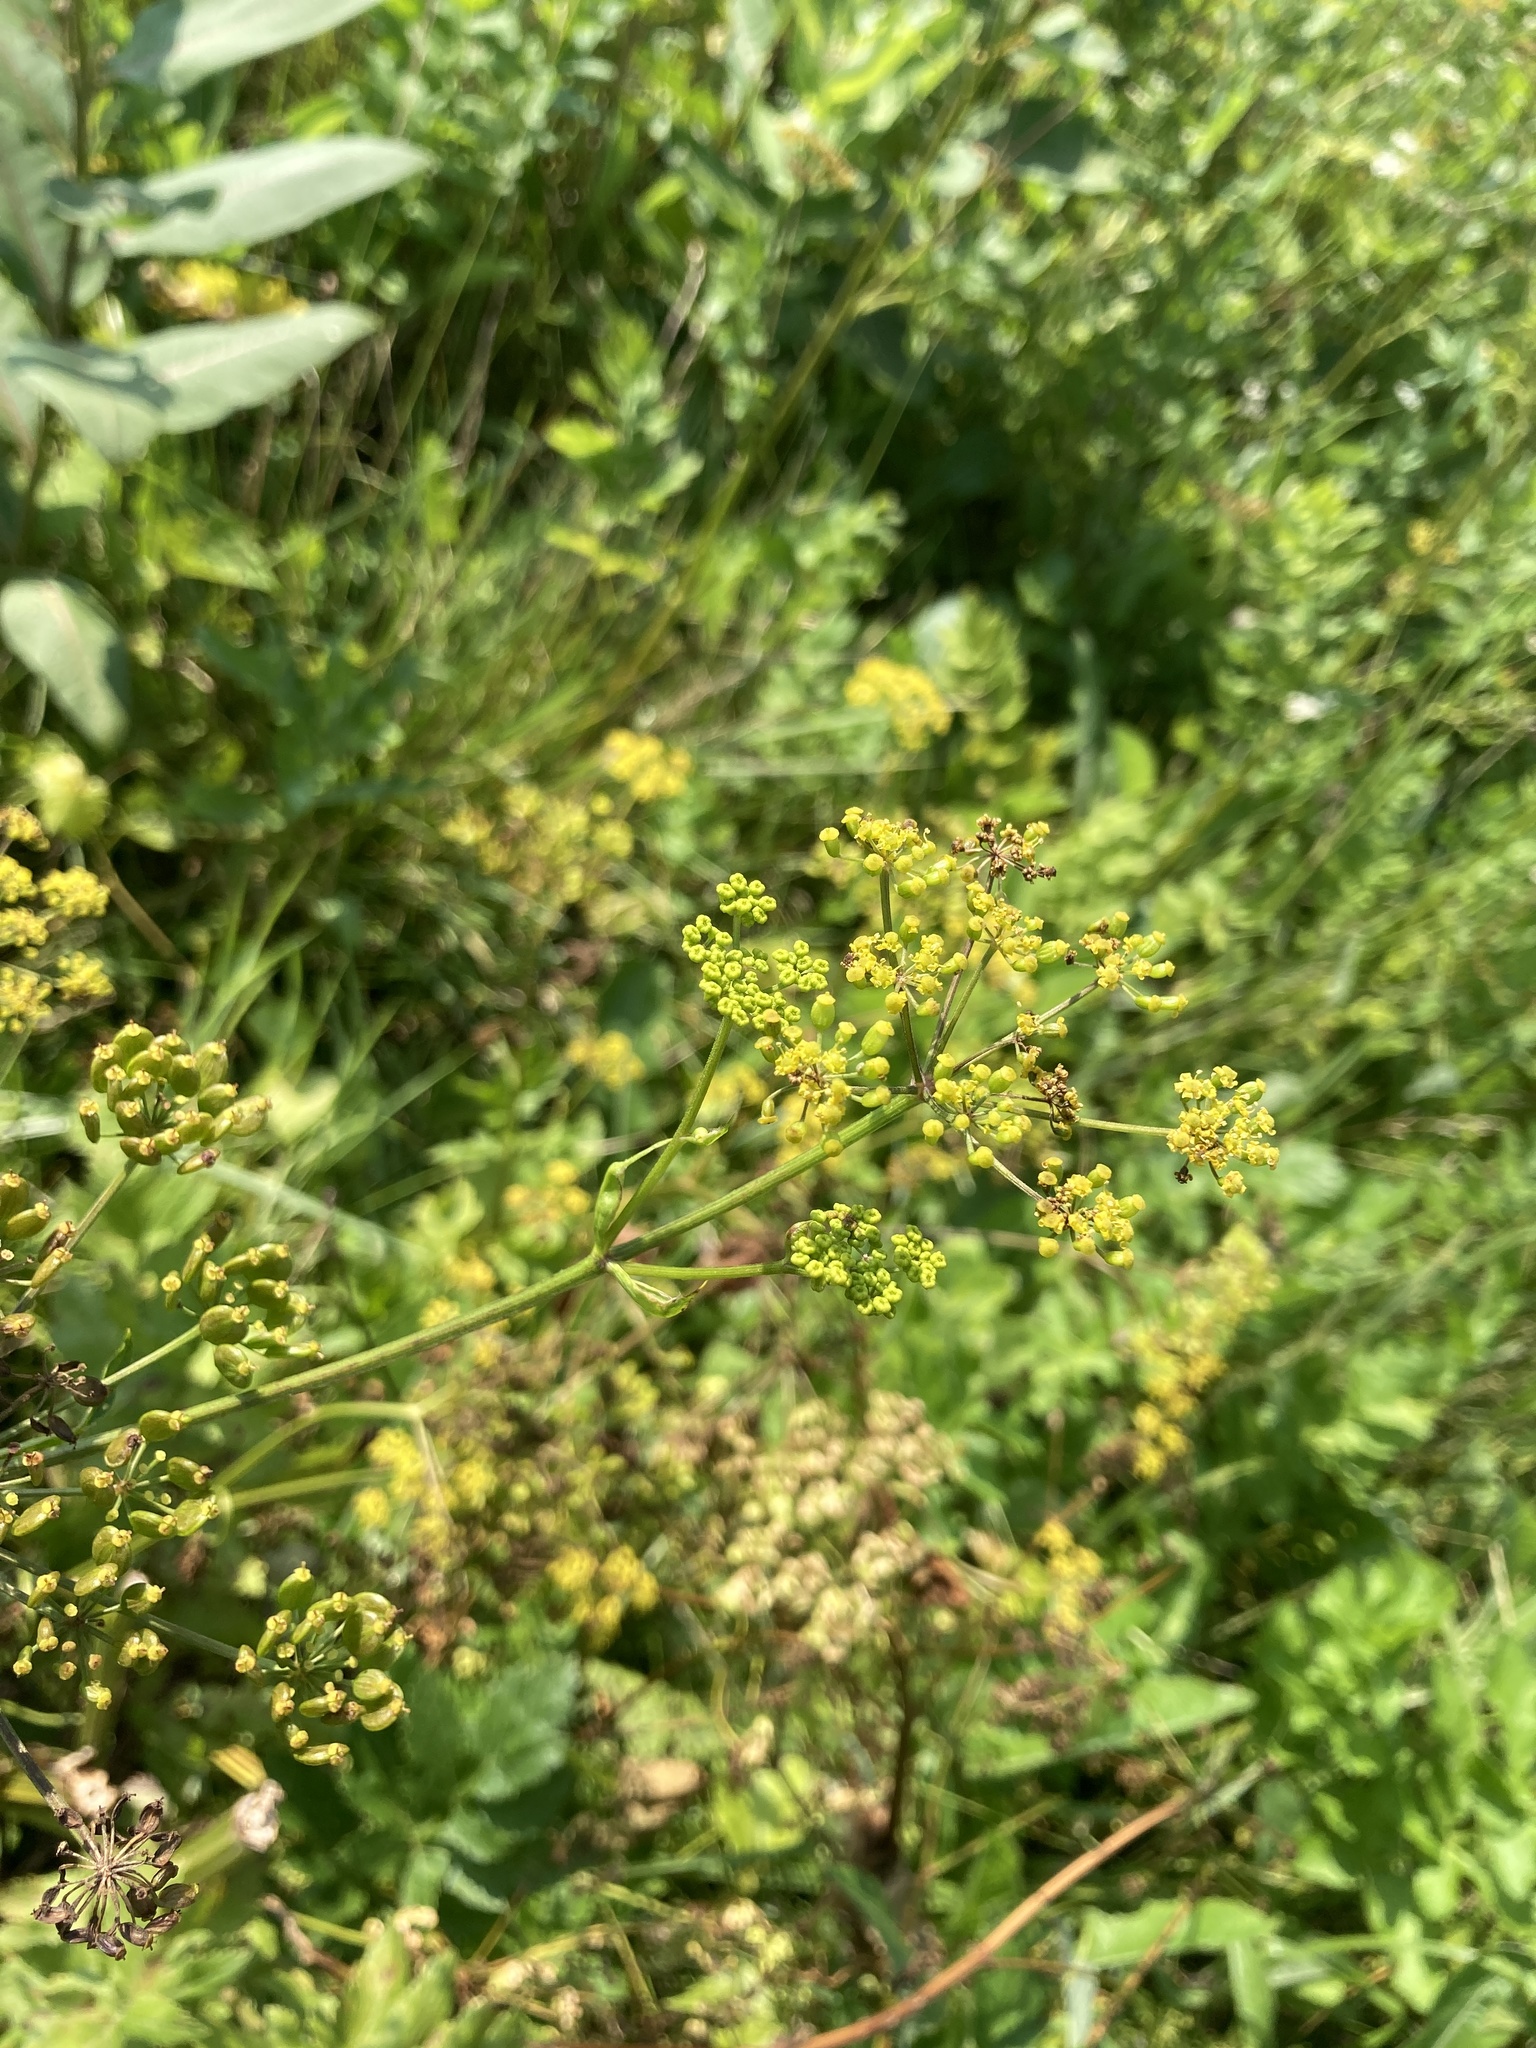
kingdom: Plantae
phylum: Tracheophyta
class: Magnoliopsida
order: Apiales
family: Apiaceae
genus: Pastinaca
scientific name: Pastinaca sativa
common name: Wild parsnip
